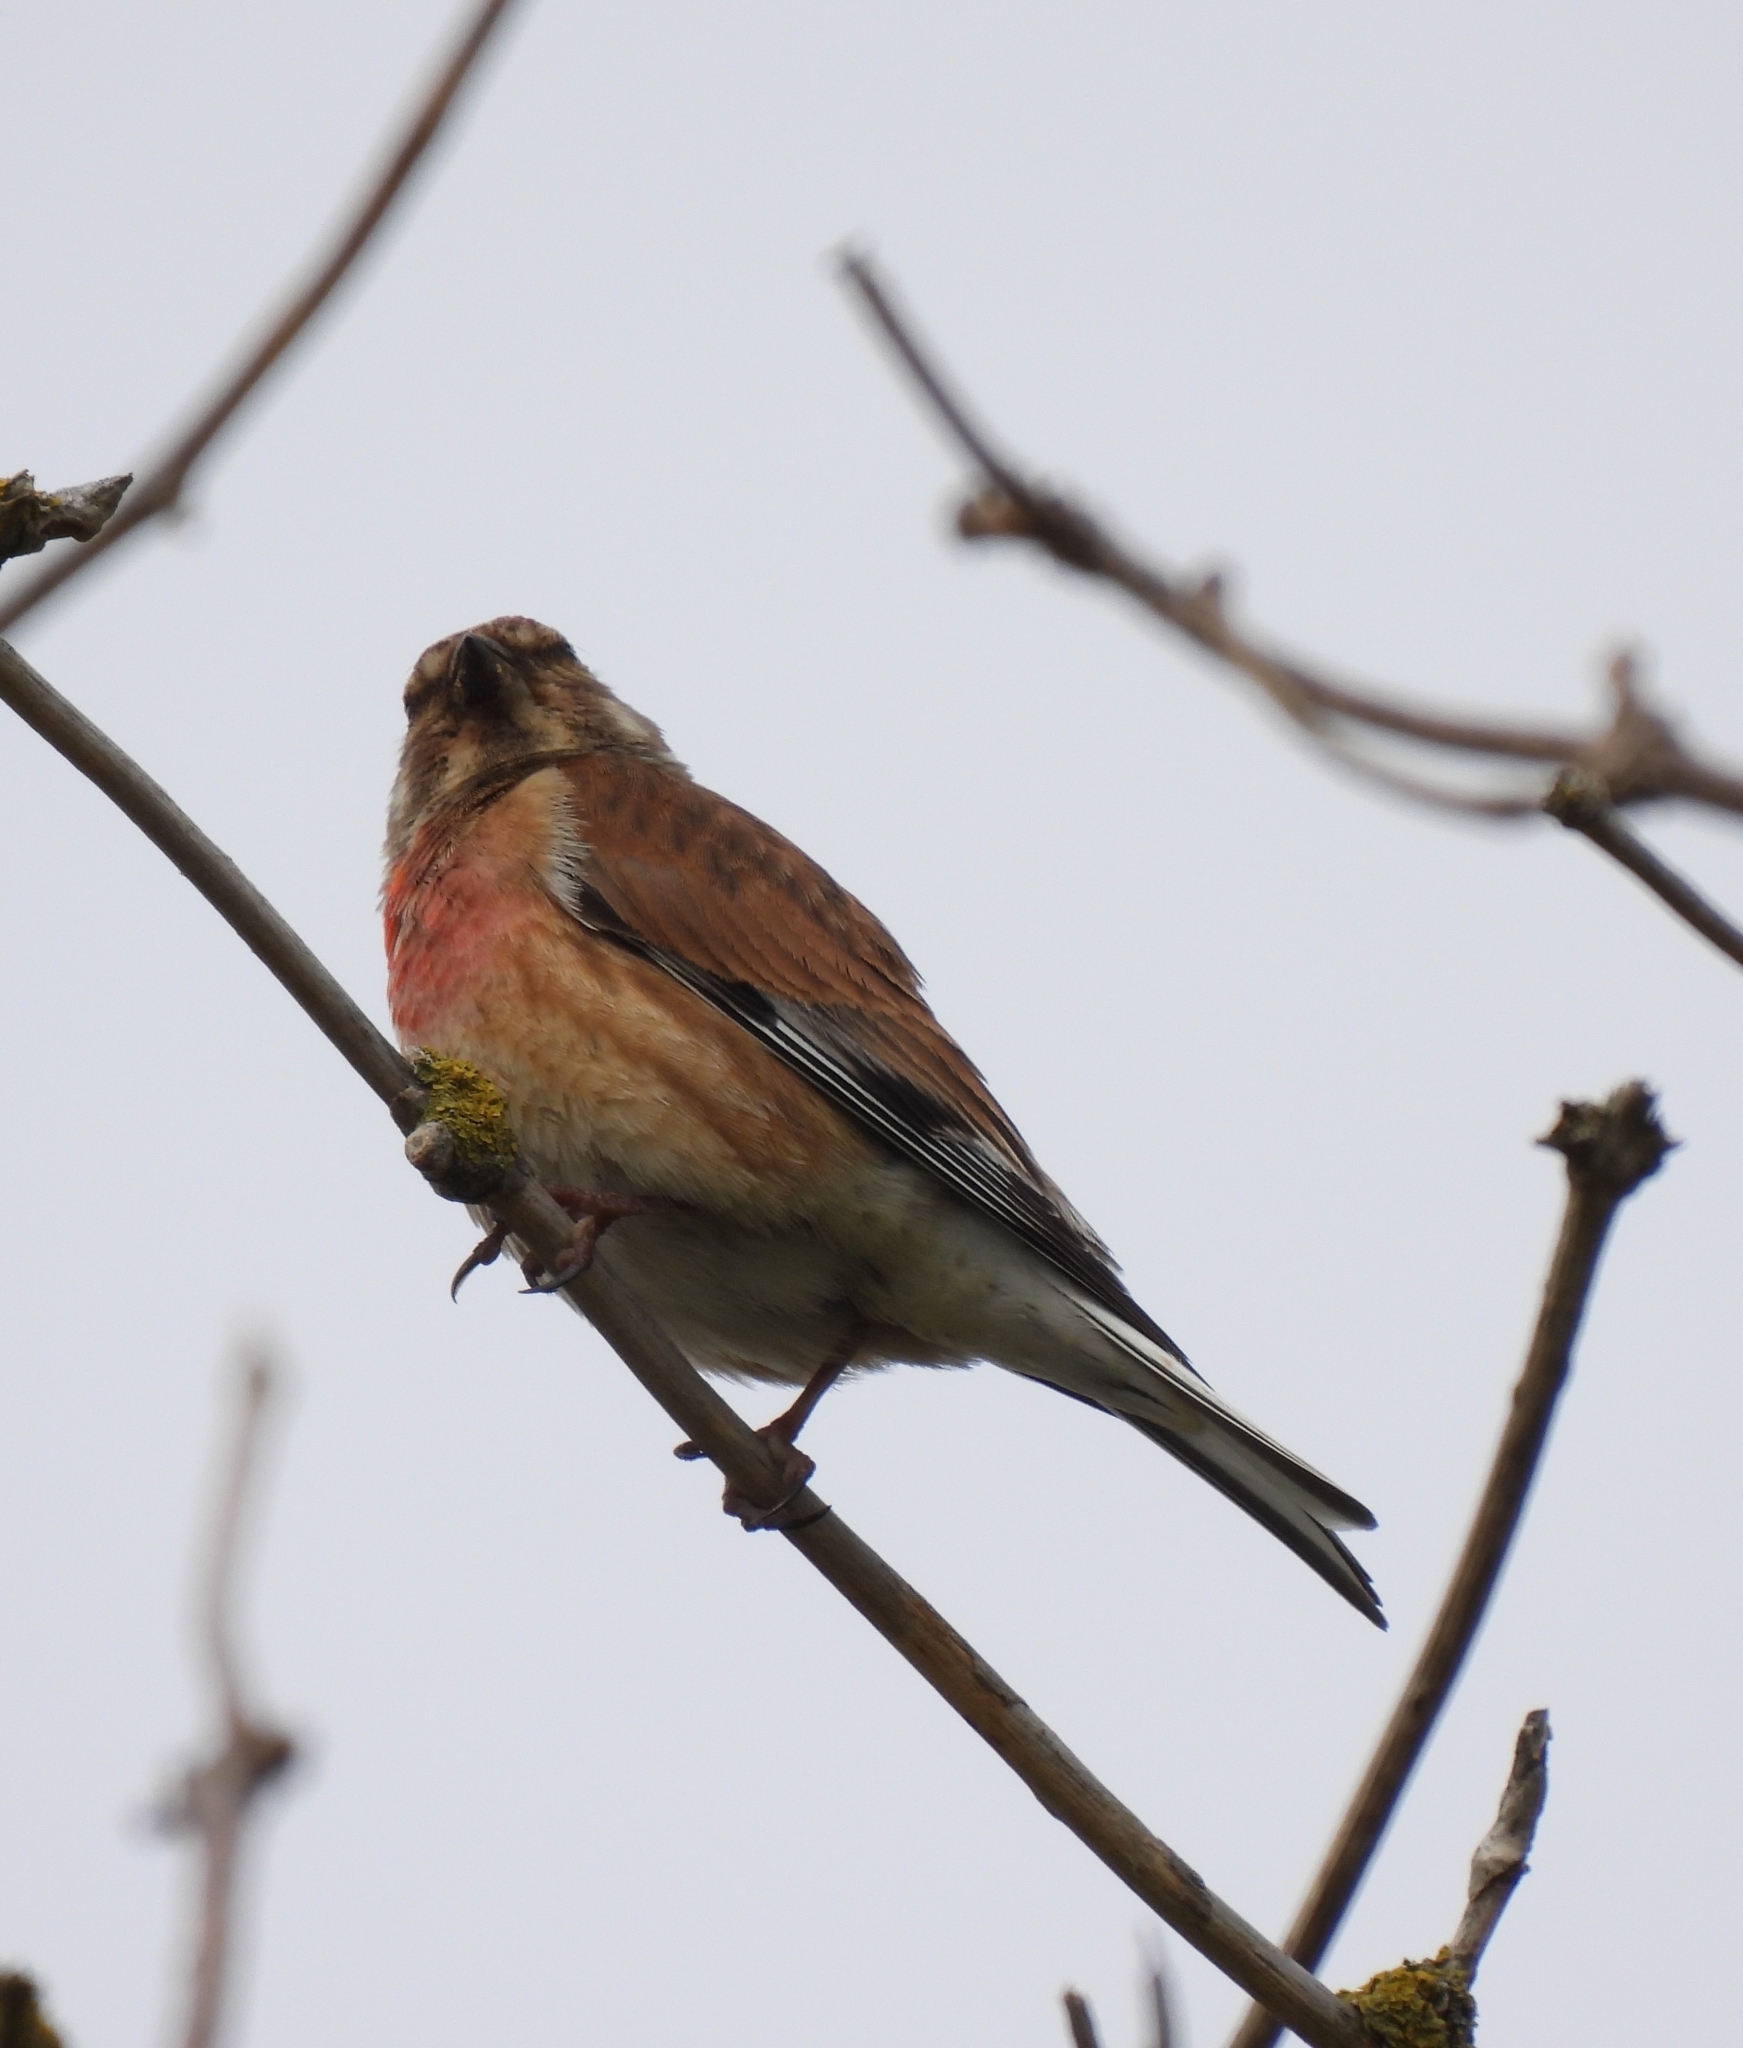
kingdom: Animalia
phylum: Chordata
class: Aves
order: Passeriformes
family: Fringillidae
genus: Linaria
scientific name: Linaria cannabina
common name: Common linnet
